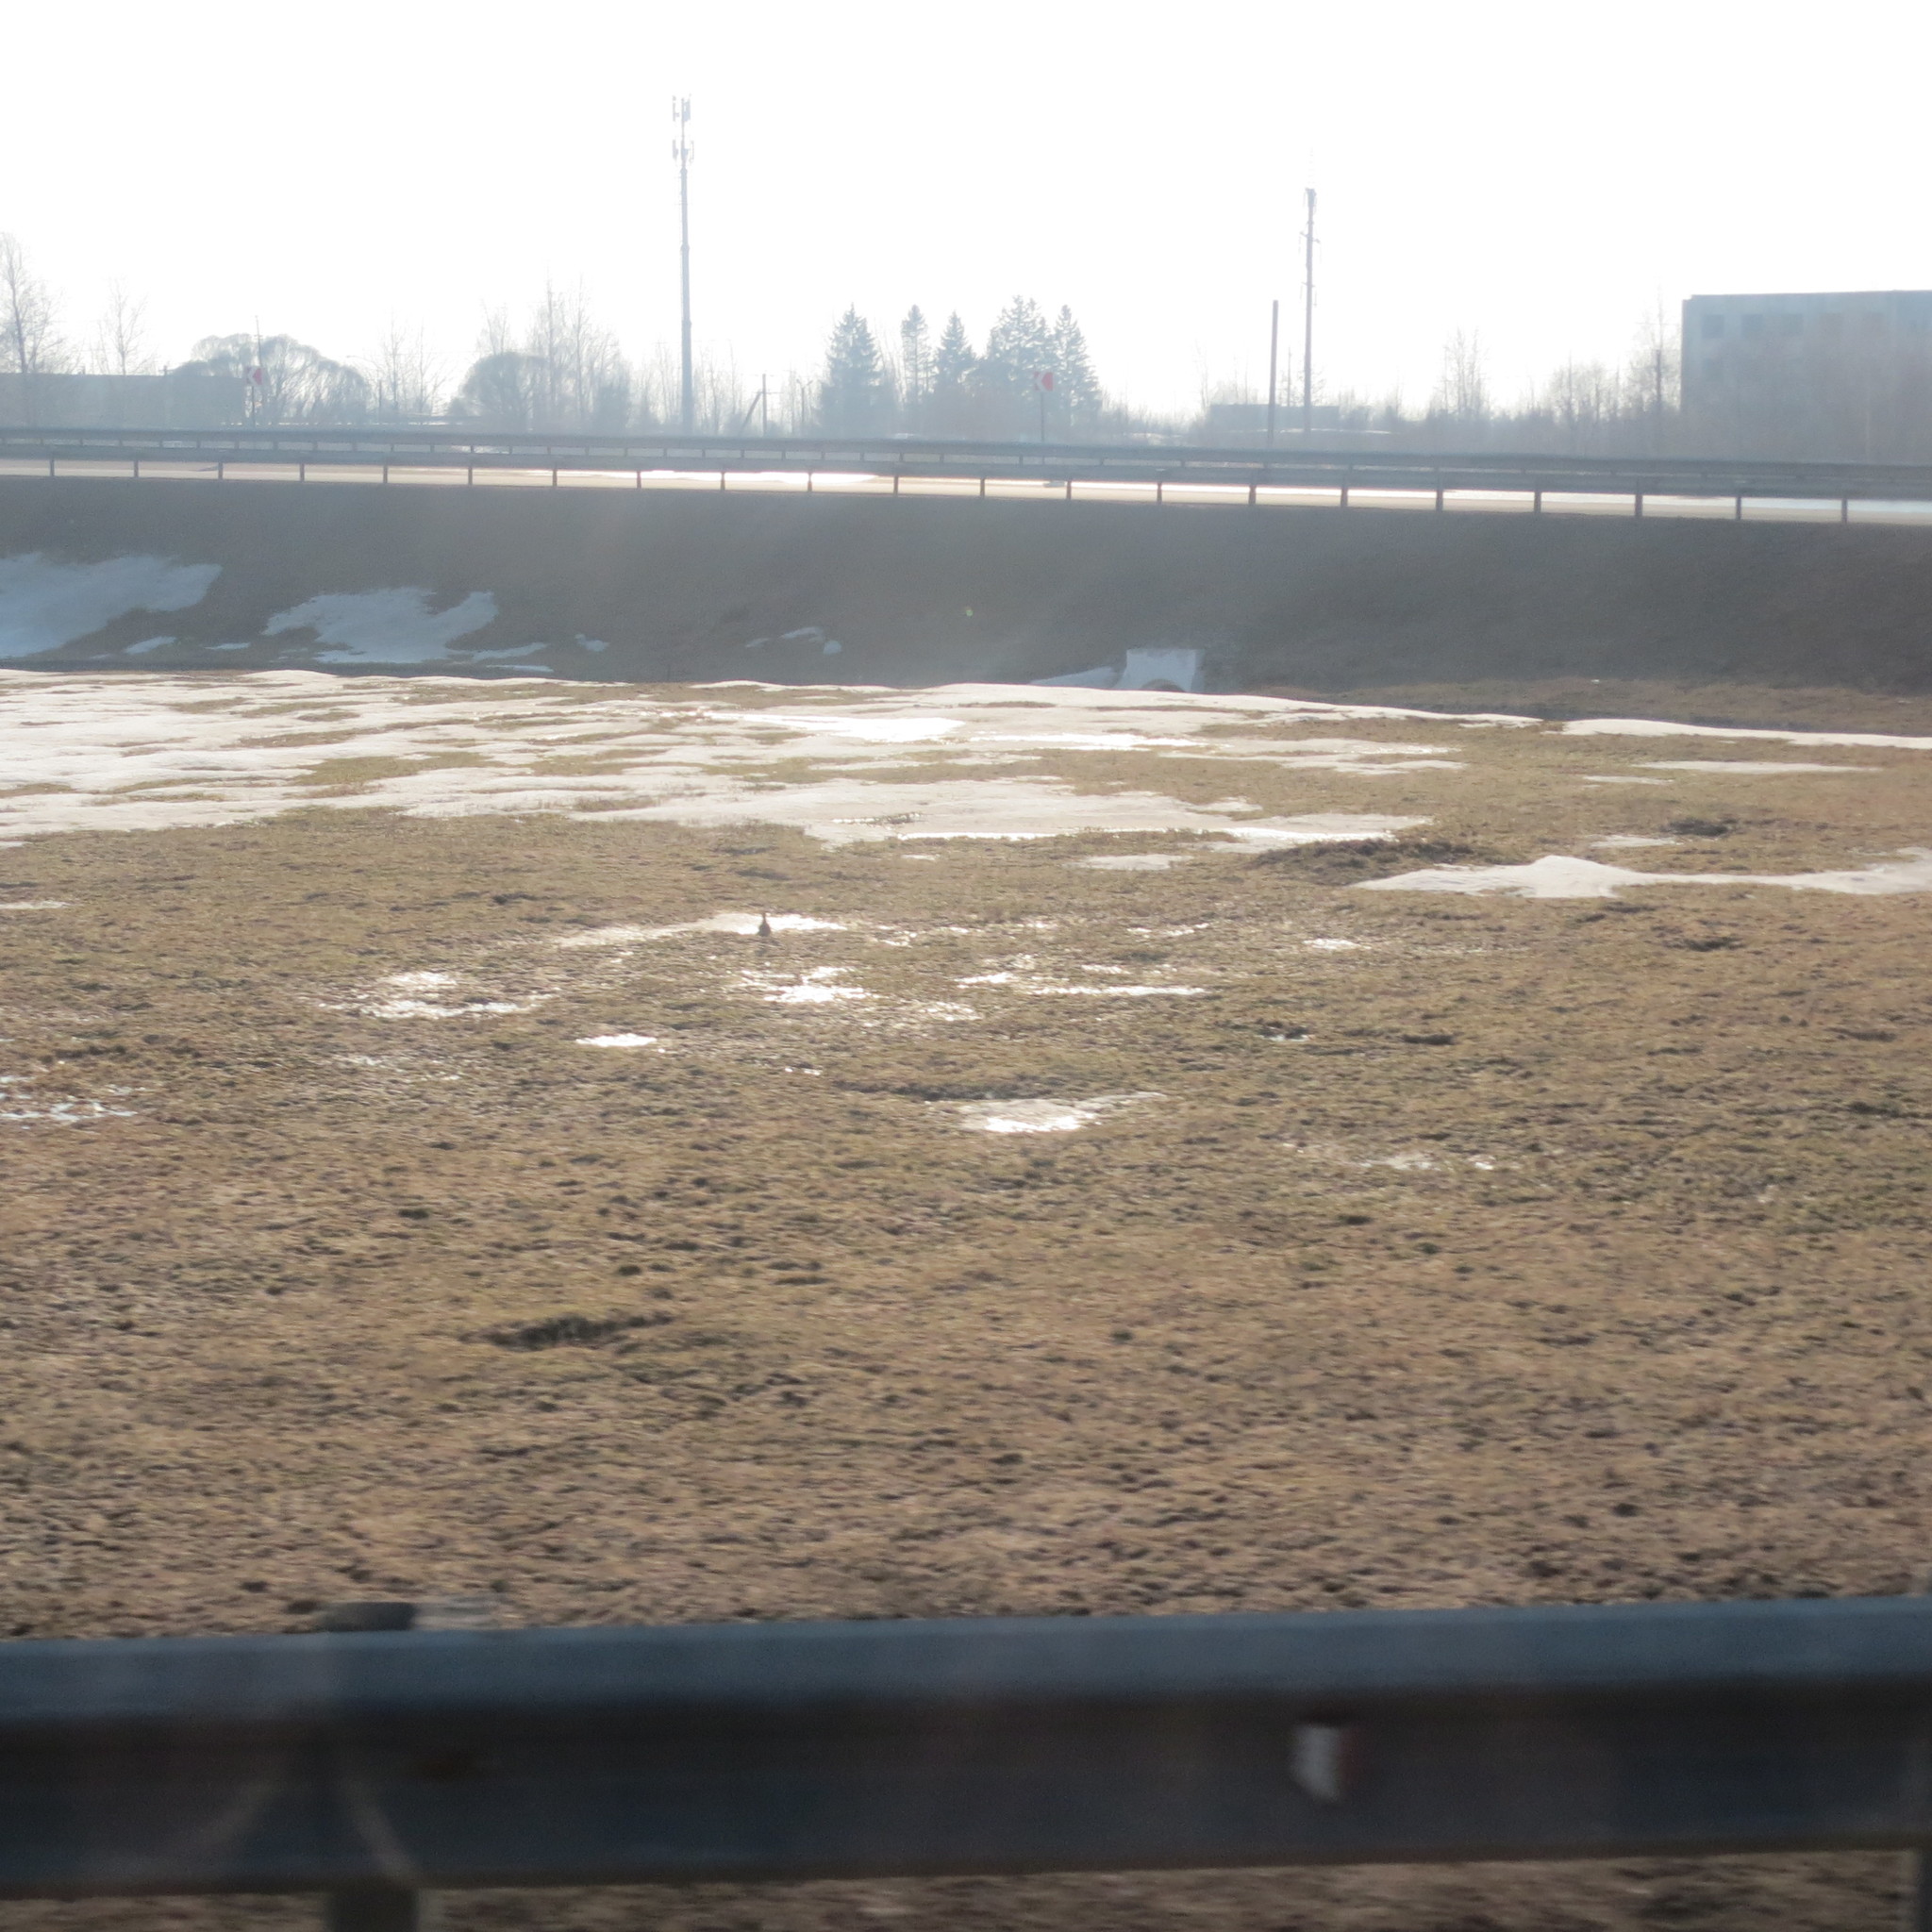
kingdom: Animalia
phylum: Chordata
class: Aves
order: Charadriiformes
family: Charadriidae
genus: Vanellus
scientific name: Vanellus vanellus
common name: Northern lapwing
